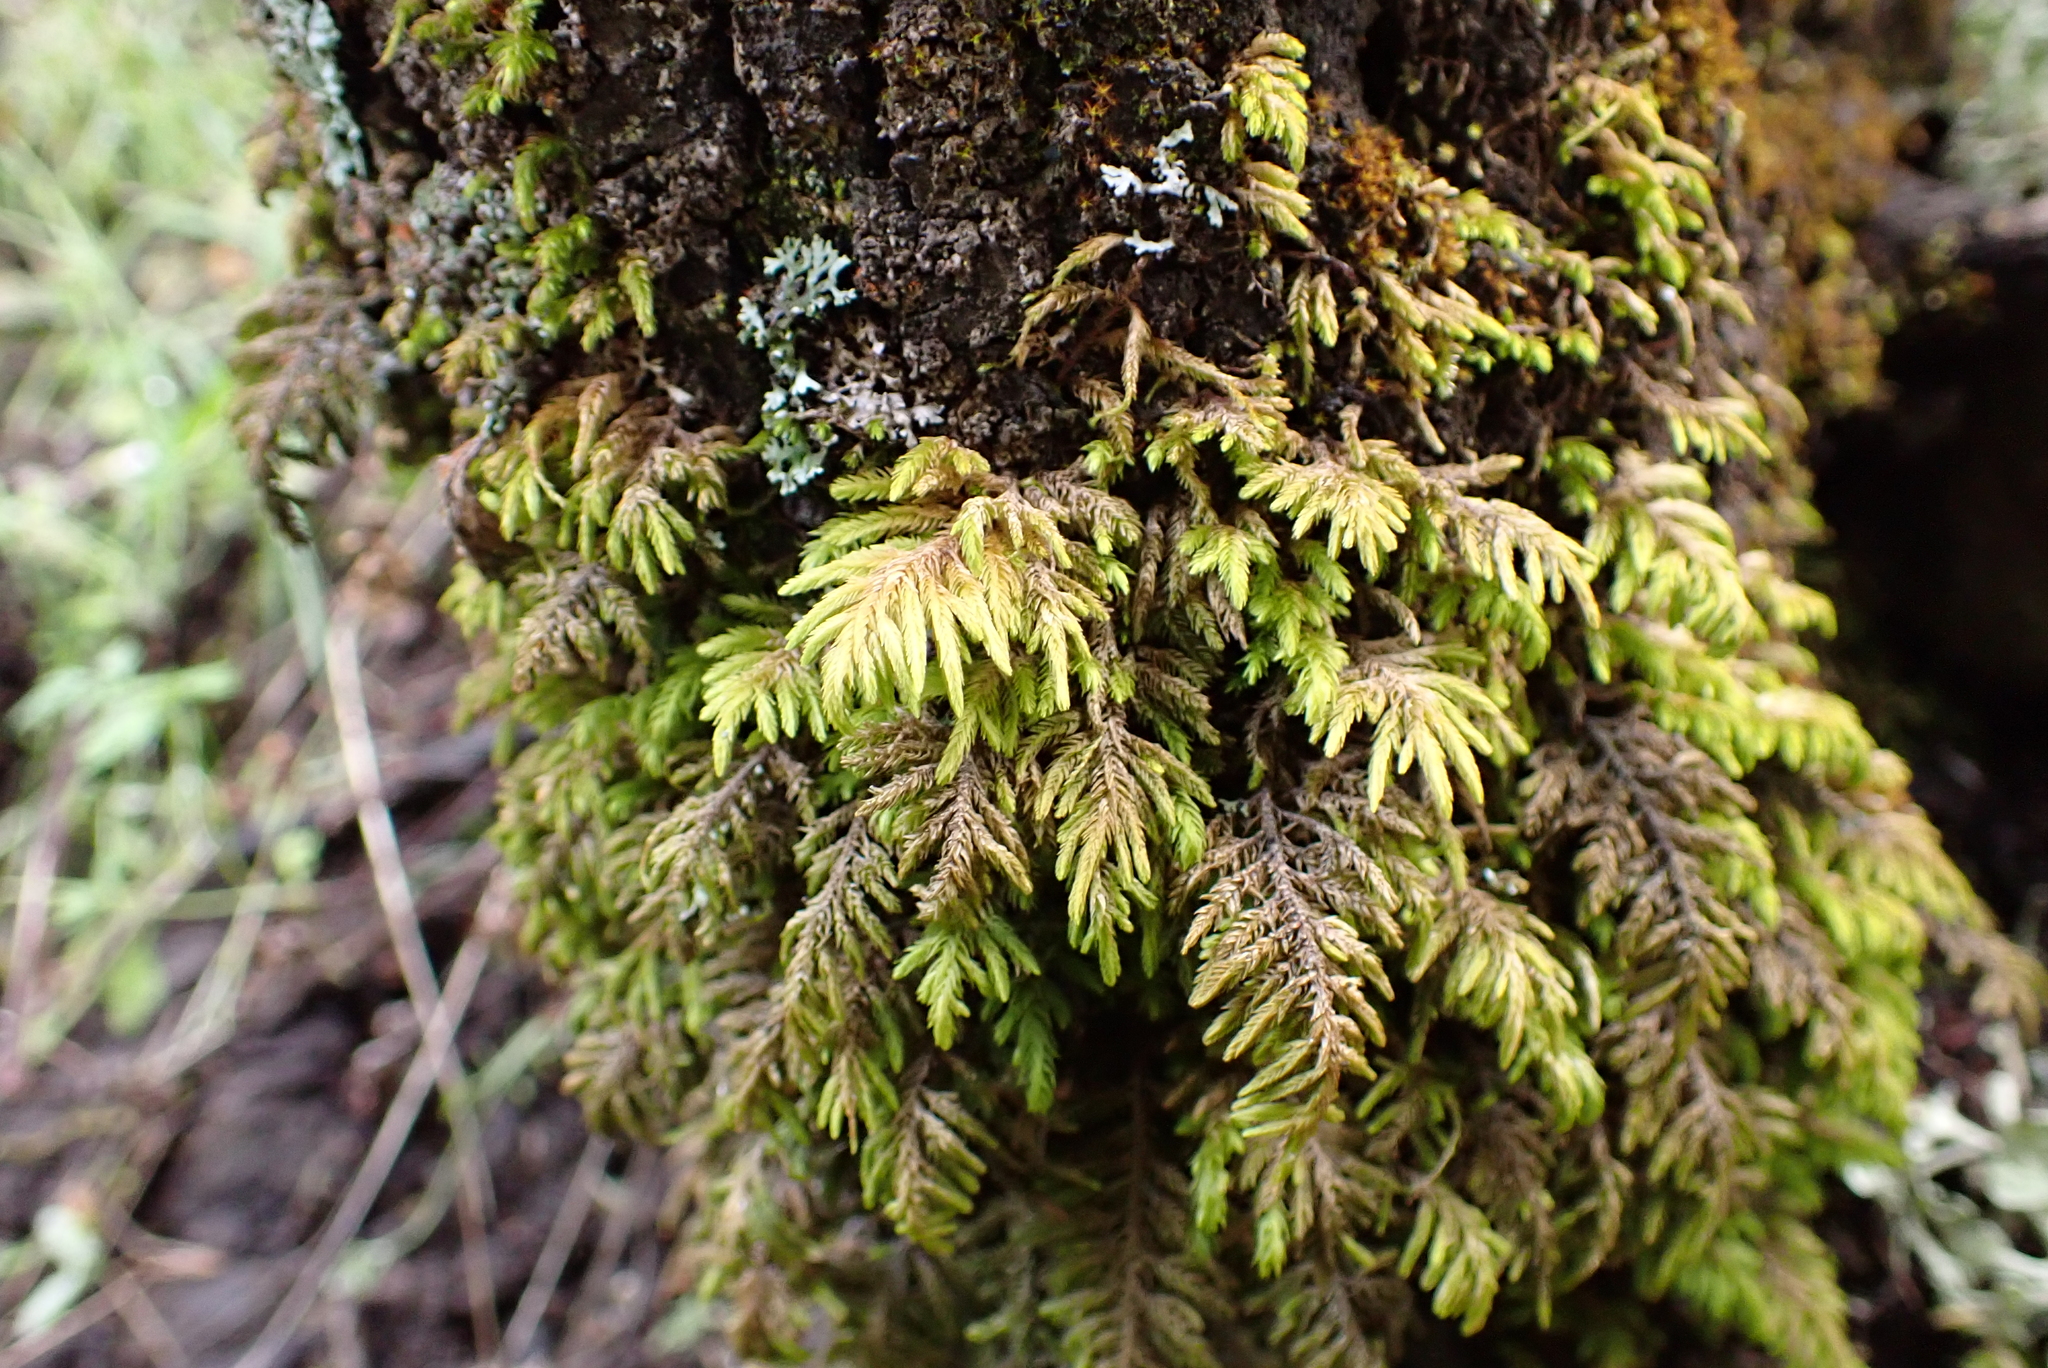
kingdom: Plantae
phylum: Bryophyta
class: Bryopsida
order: Hypnales
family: Cryphaeaceae
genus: Dendroalsia
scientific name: Dendroalsia abietina
